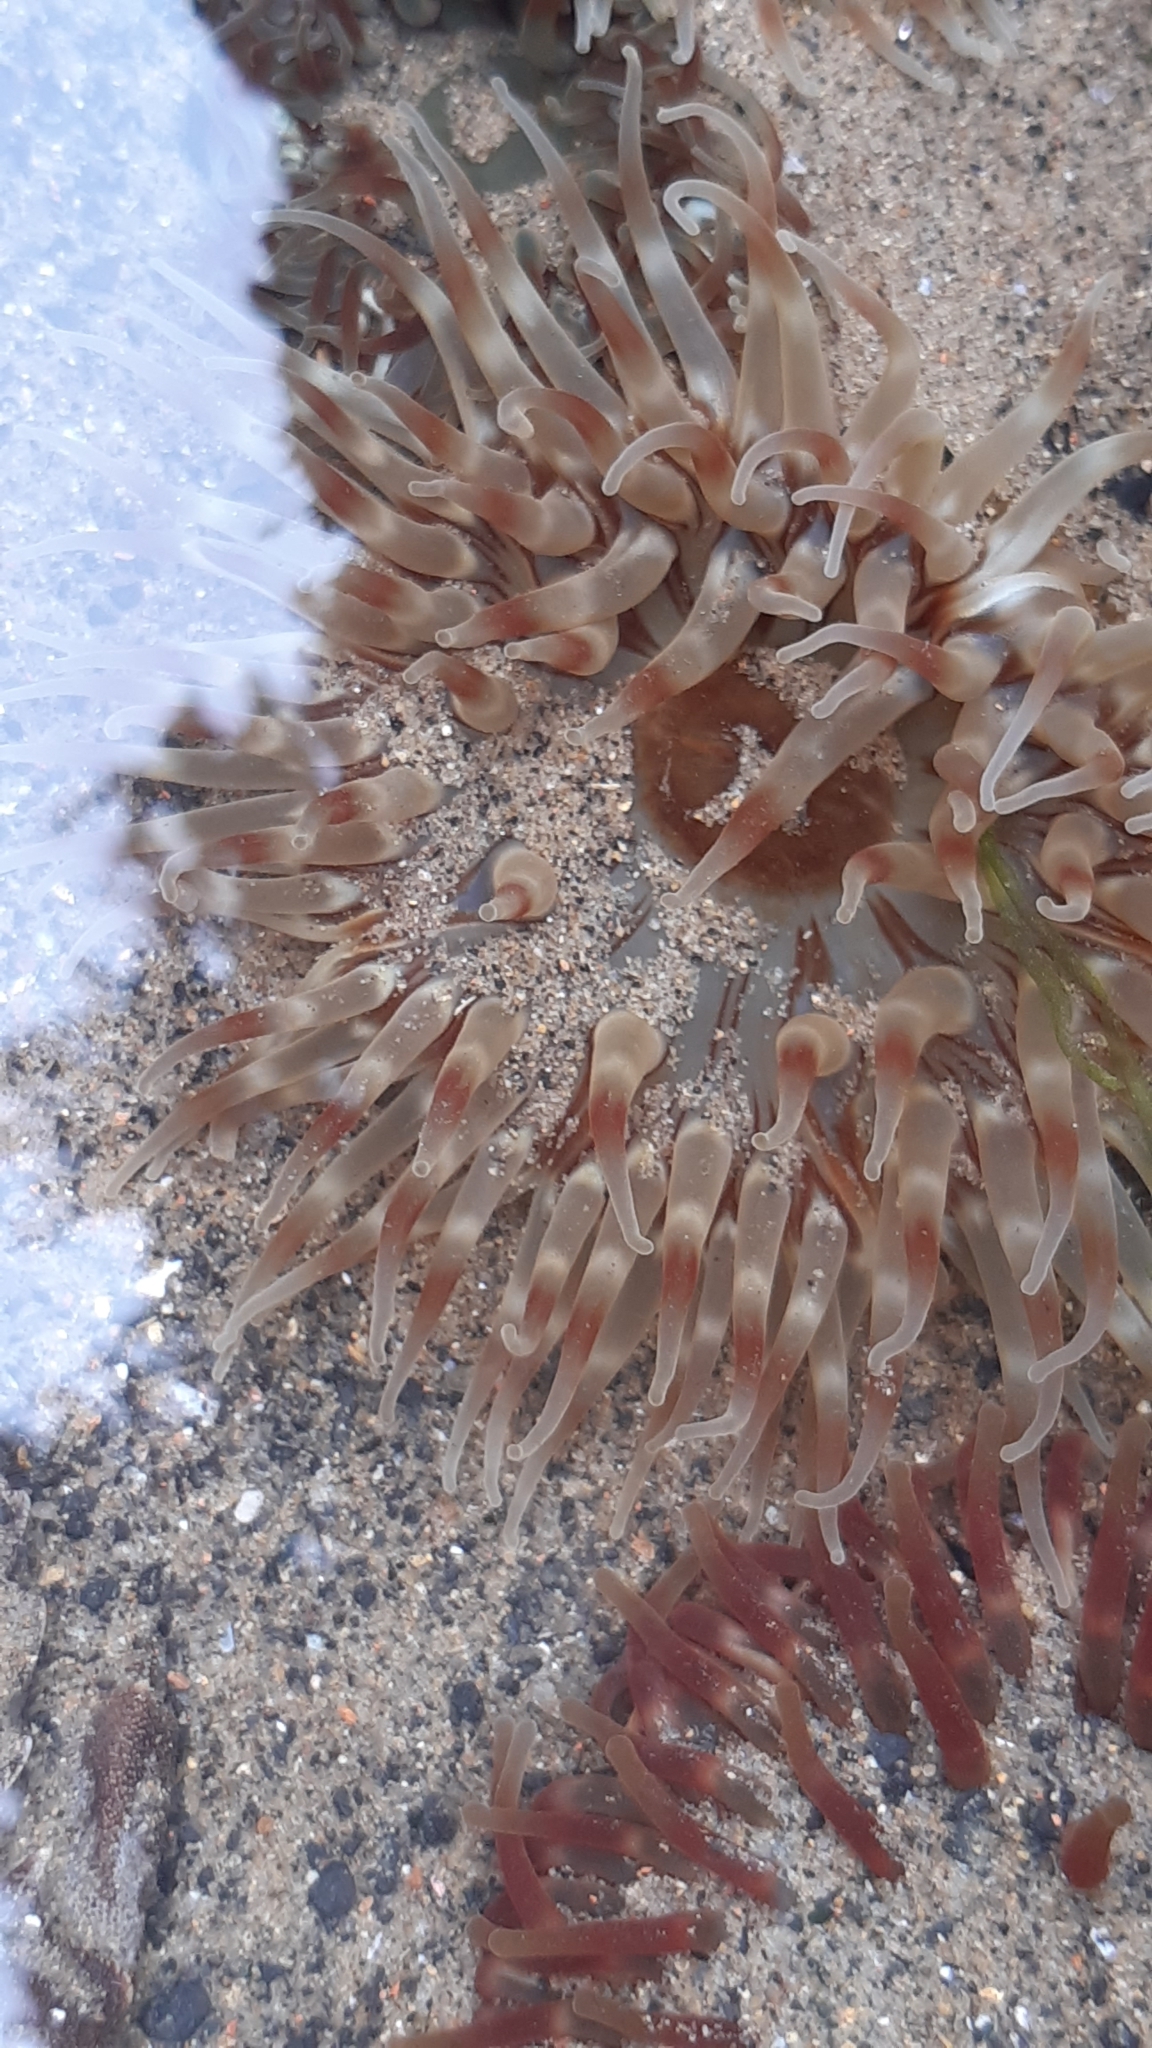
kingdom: Animalia
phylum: Cnidaria
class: Anthozoa
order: Actiniaria
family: Actiniidae
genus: Urticina
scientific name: Urticina felina
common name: Dahlia anemone
